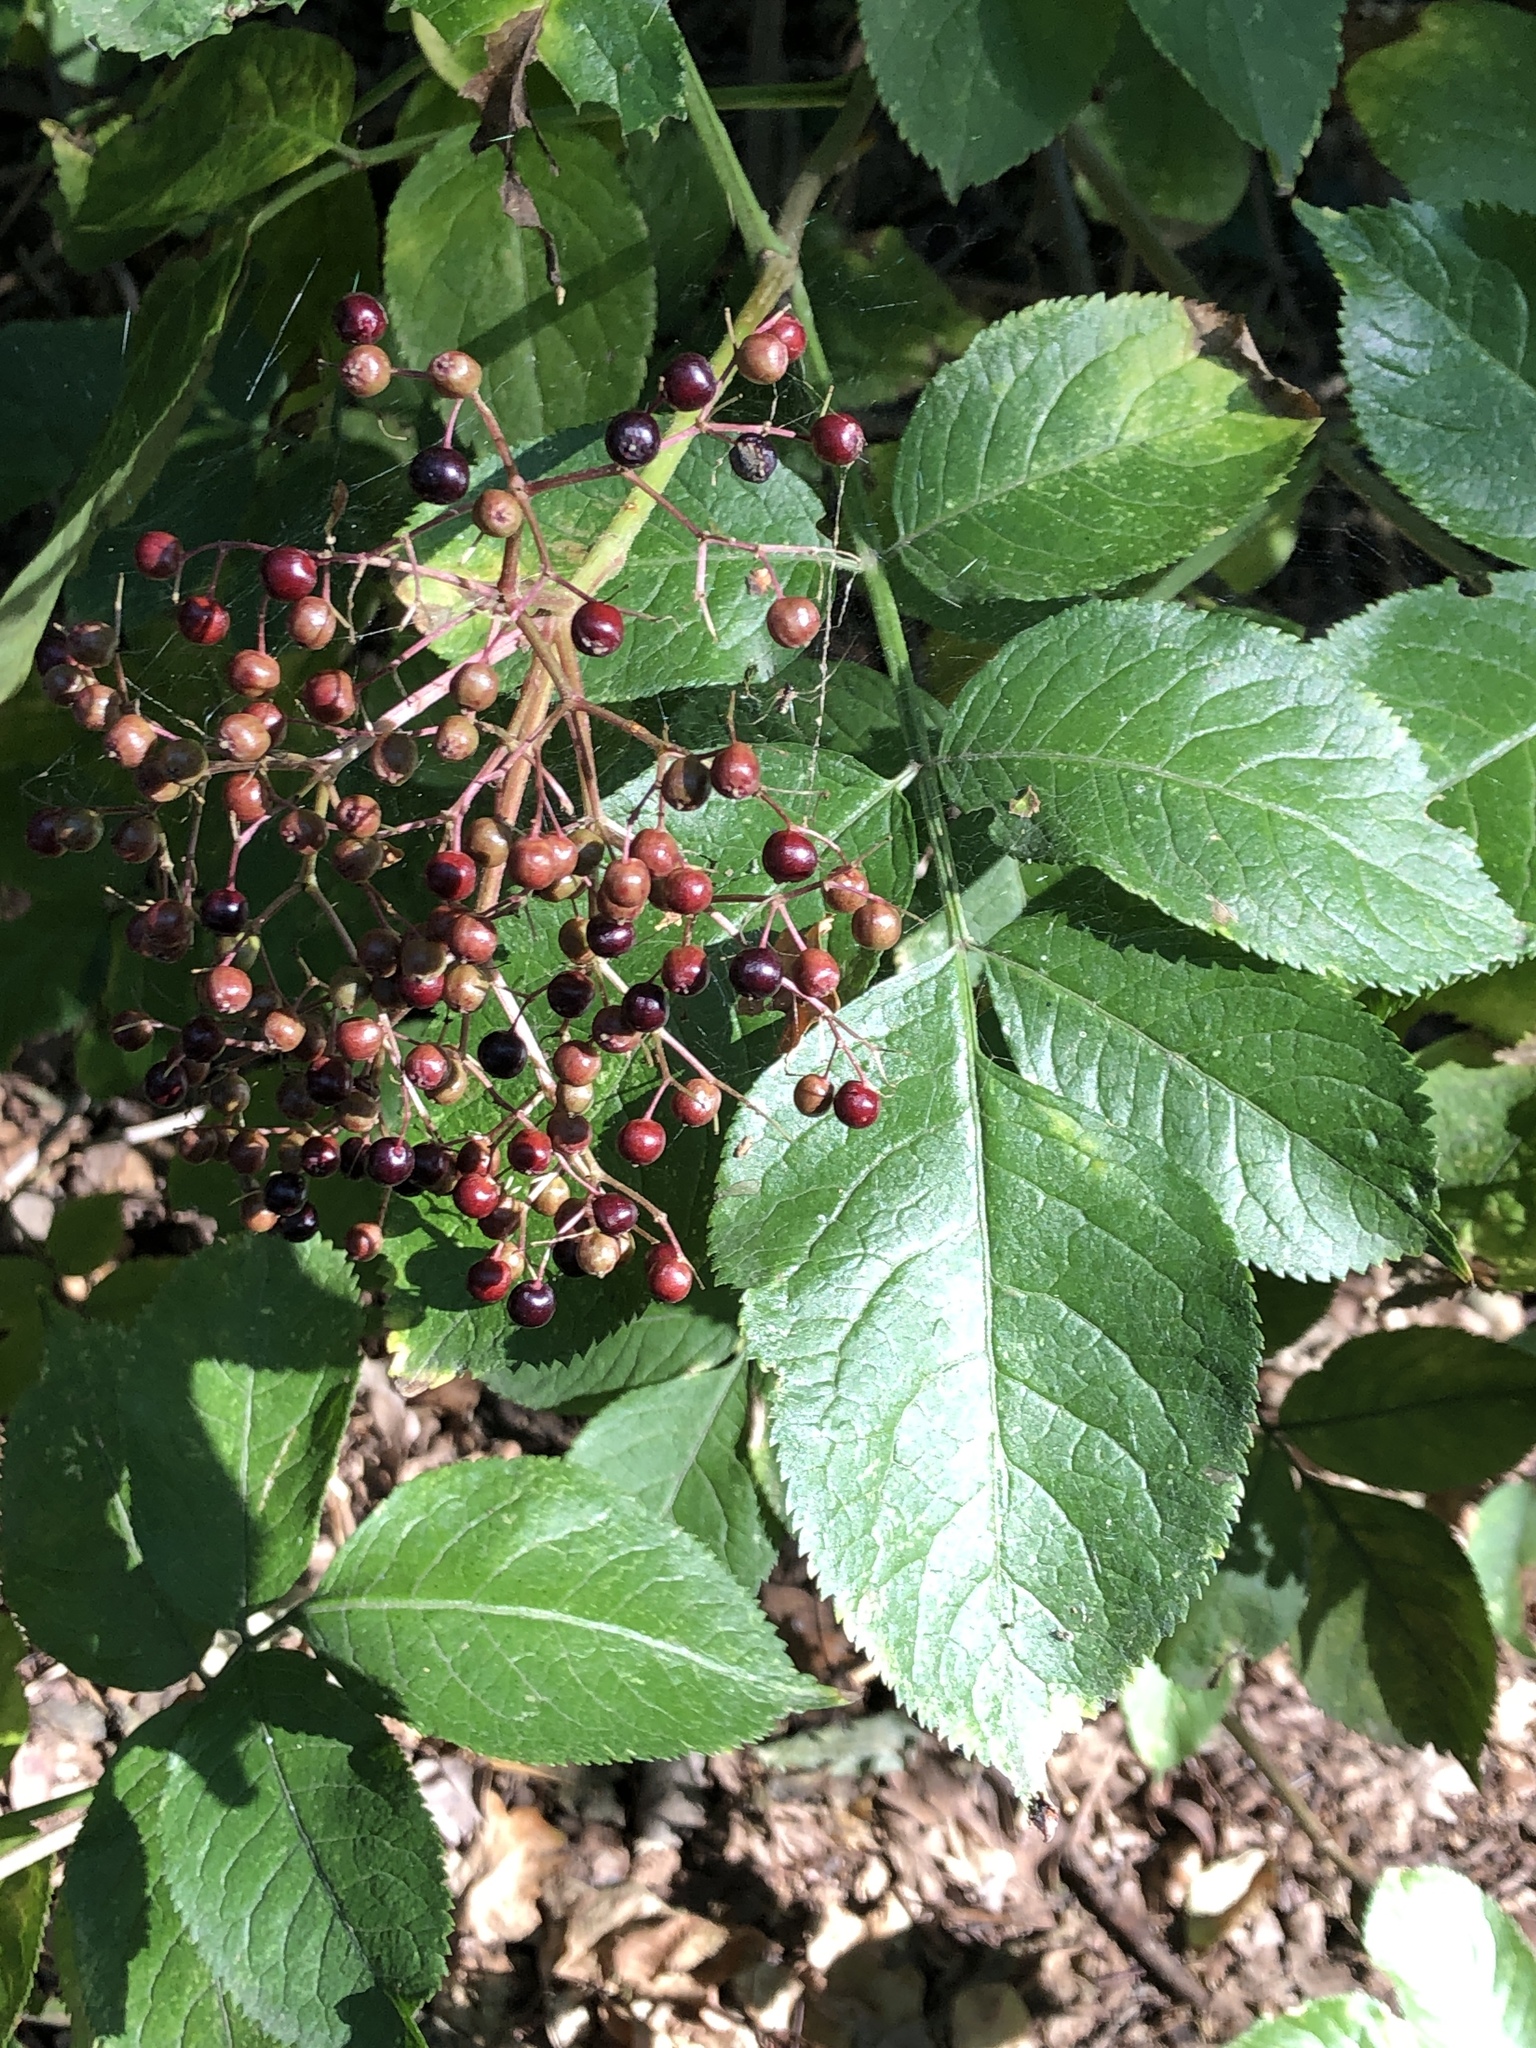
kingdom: Plantae
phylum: Tracheophyta
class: Magnoliopsida
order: Dipsacales
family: Viburnaceae
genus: Sambucus
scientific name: Sambucus nigra
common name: Elder
